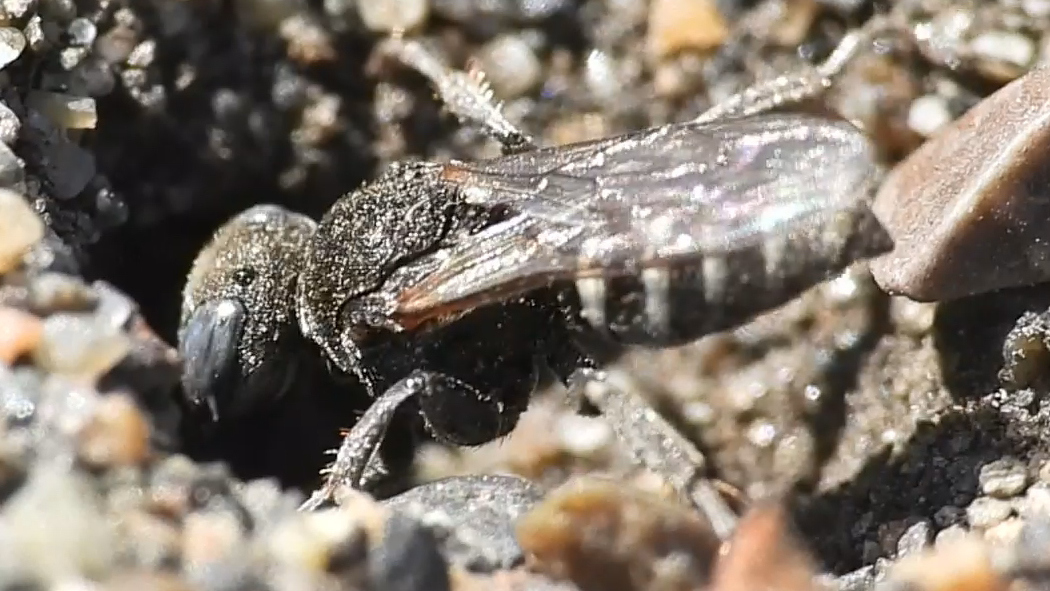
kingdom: Animalia
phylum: Arthropoda
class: Insecta
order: Hymenoptera
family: Crabronidae
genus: Oxybelus
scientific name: Oxybelus uniglumis
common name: Common spiny digger wasp
